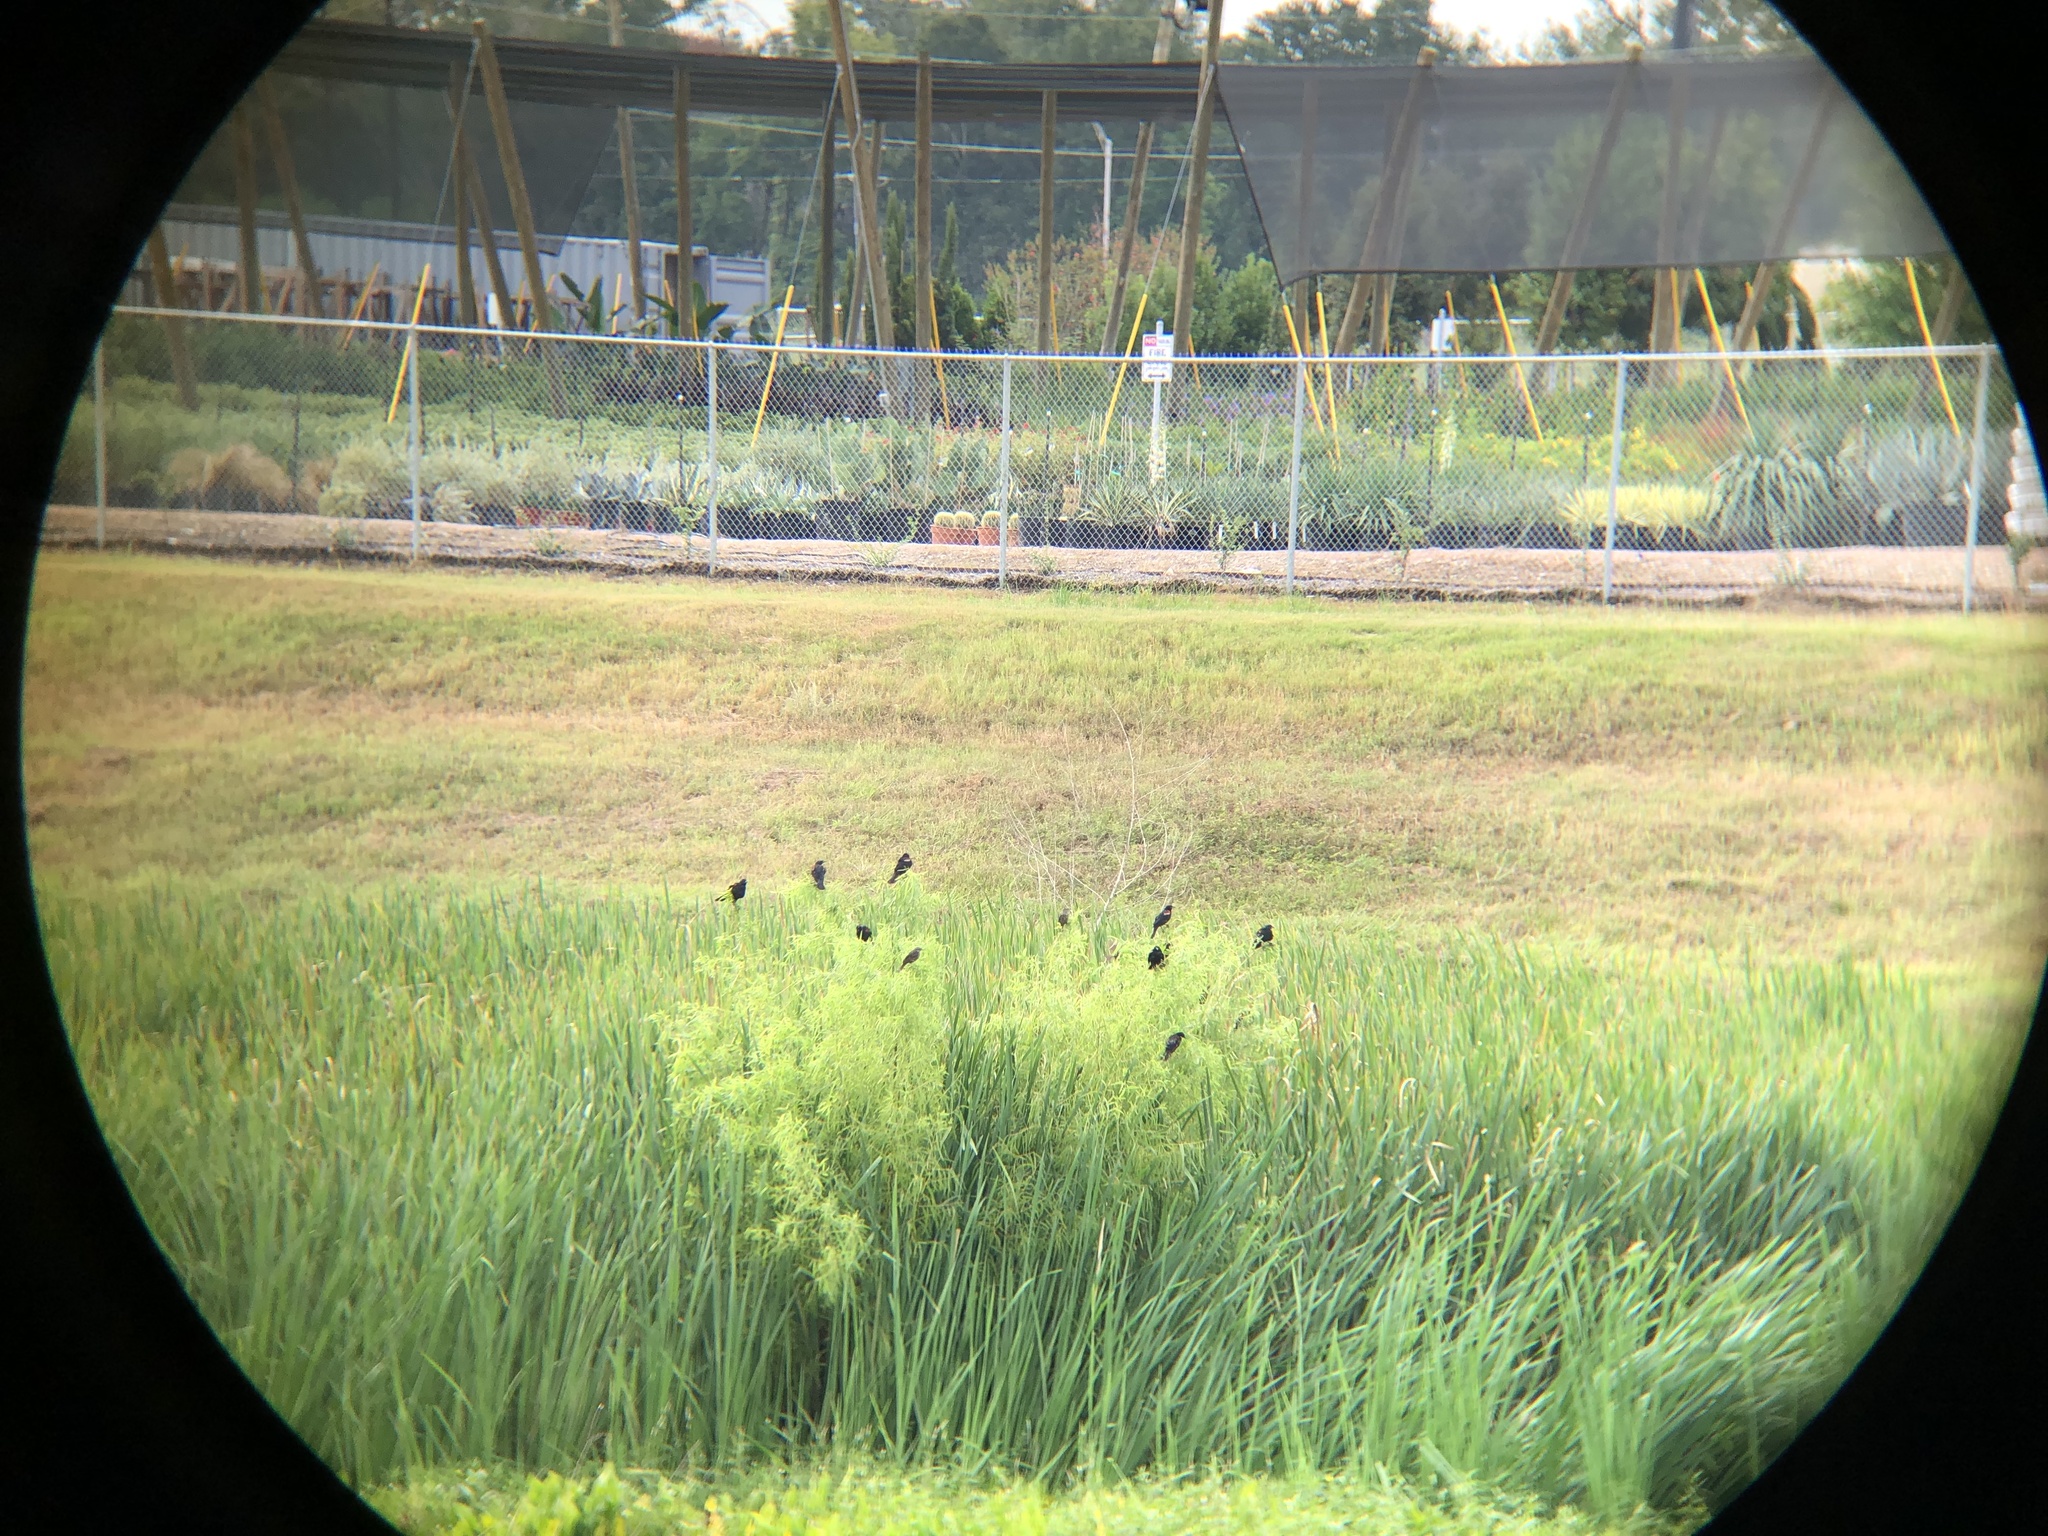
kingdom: Animalia
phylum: Chordata
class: Aves
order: Passeriformes
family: Icteridae
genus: Agelaius
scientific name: Agelaius phoeniceus
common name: Red-winged blackbird
